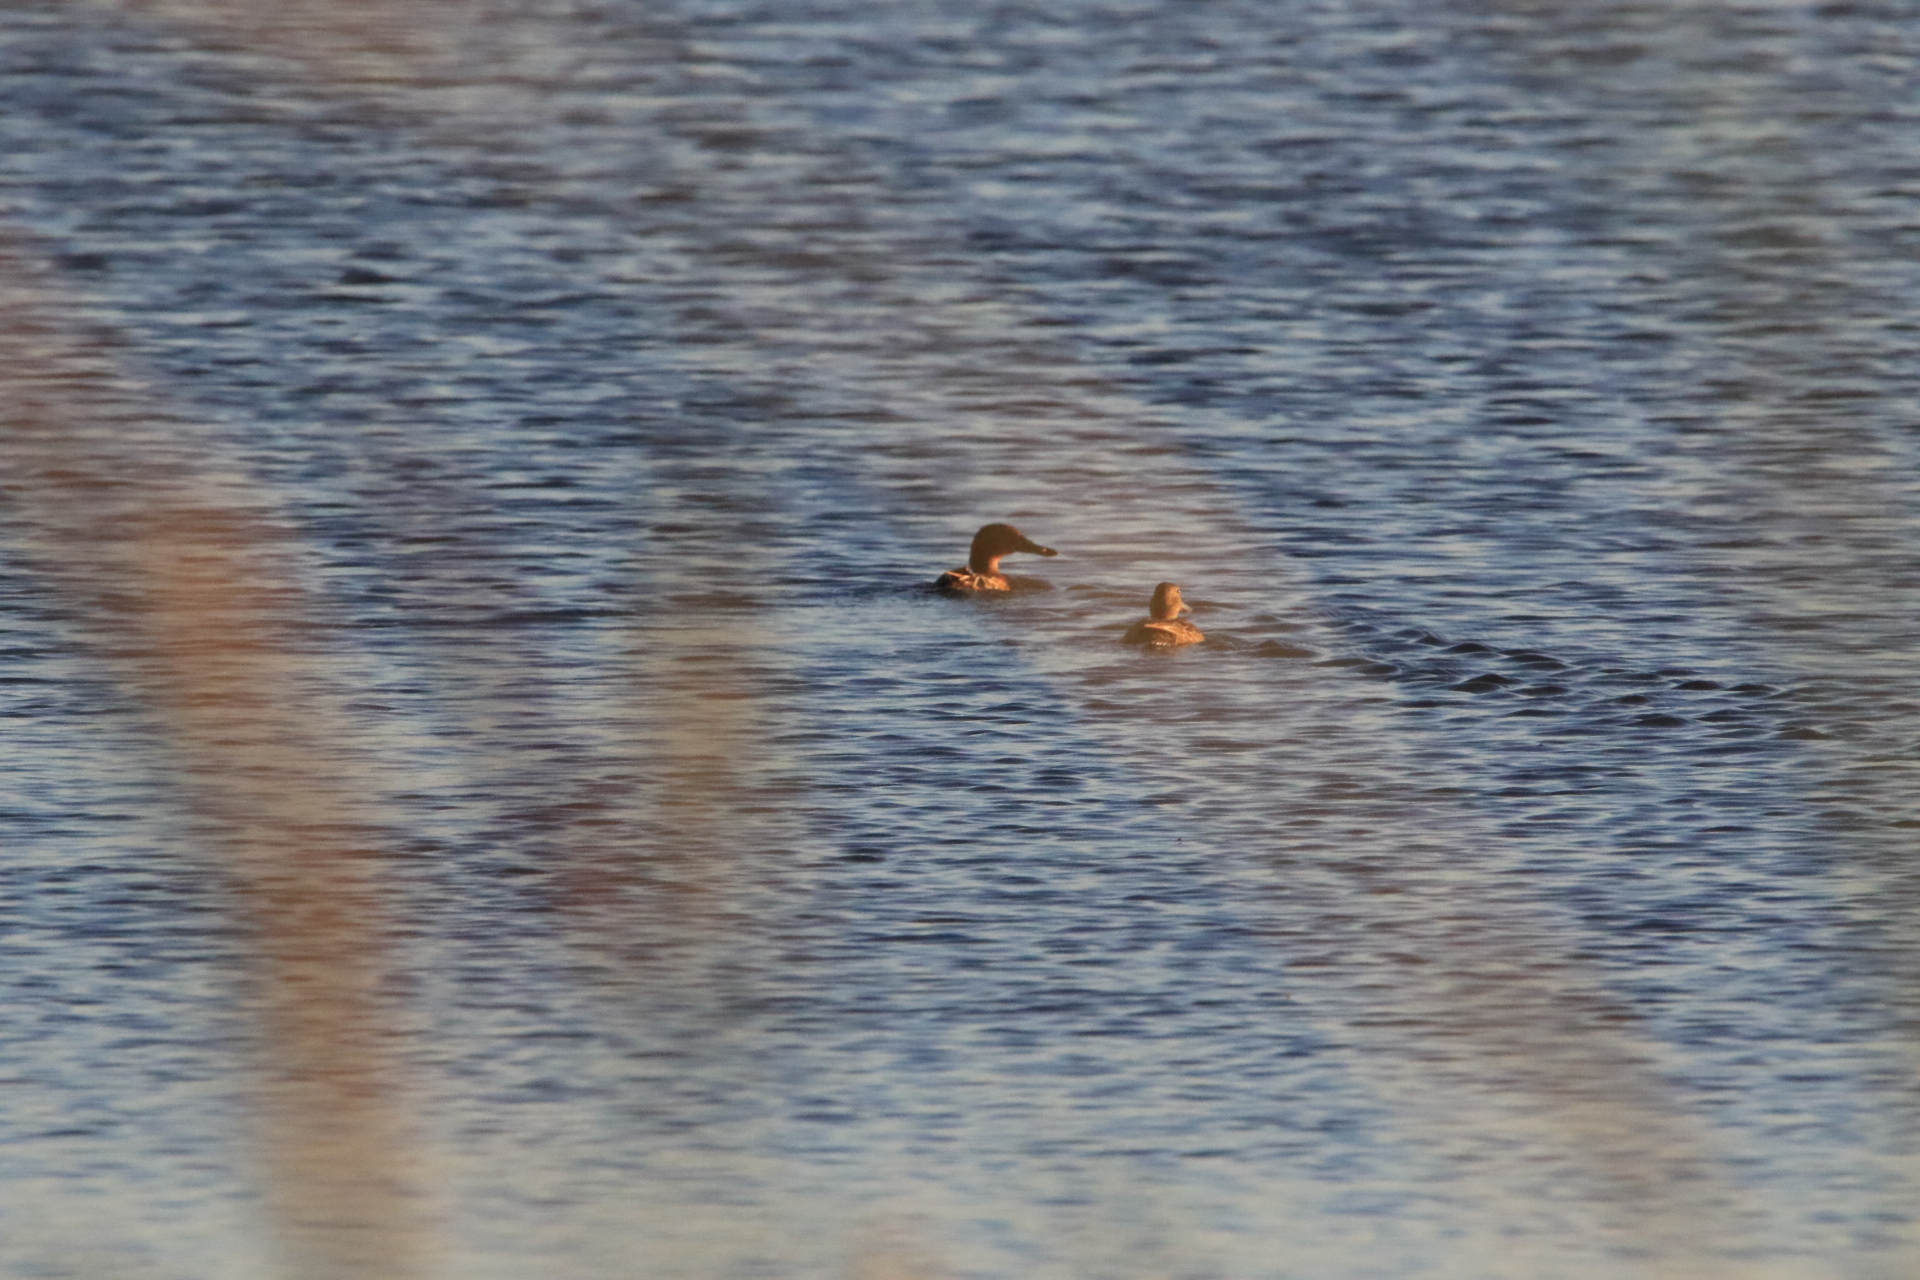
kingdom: Animalia
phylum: Chordata
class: Aves
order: Anseriformes
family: Anatidae
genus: Spatula
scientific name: Spatula cyanoptera
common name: Cinnamon teal
